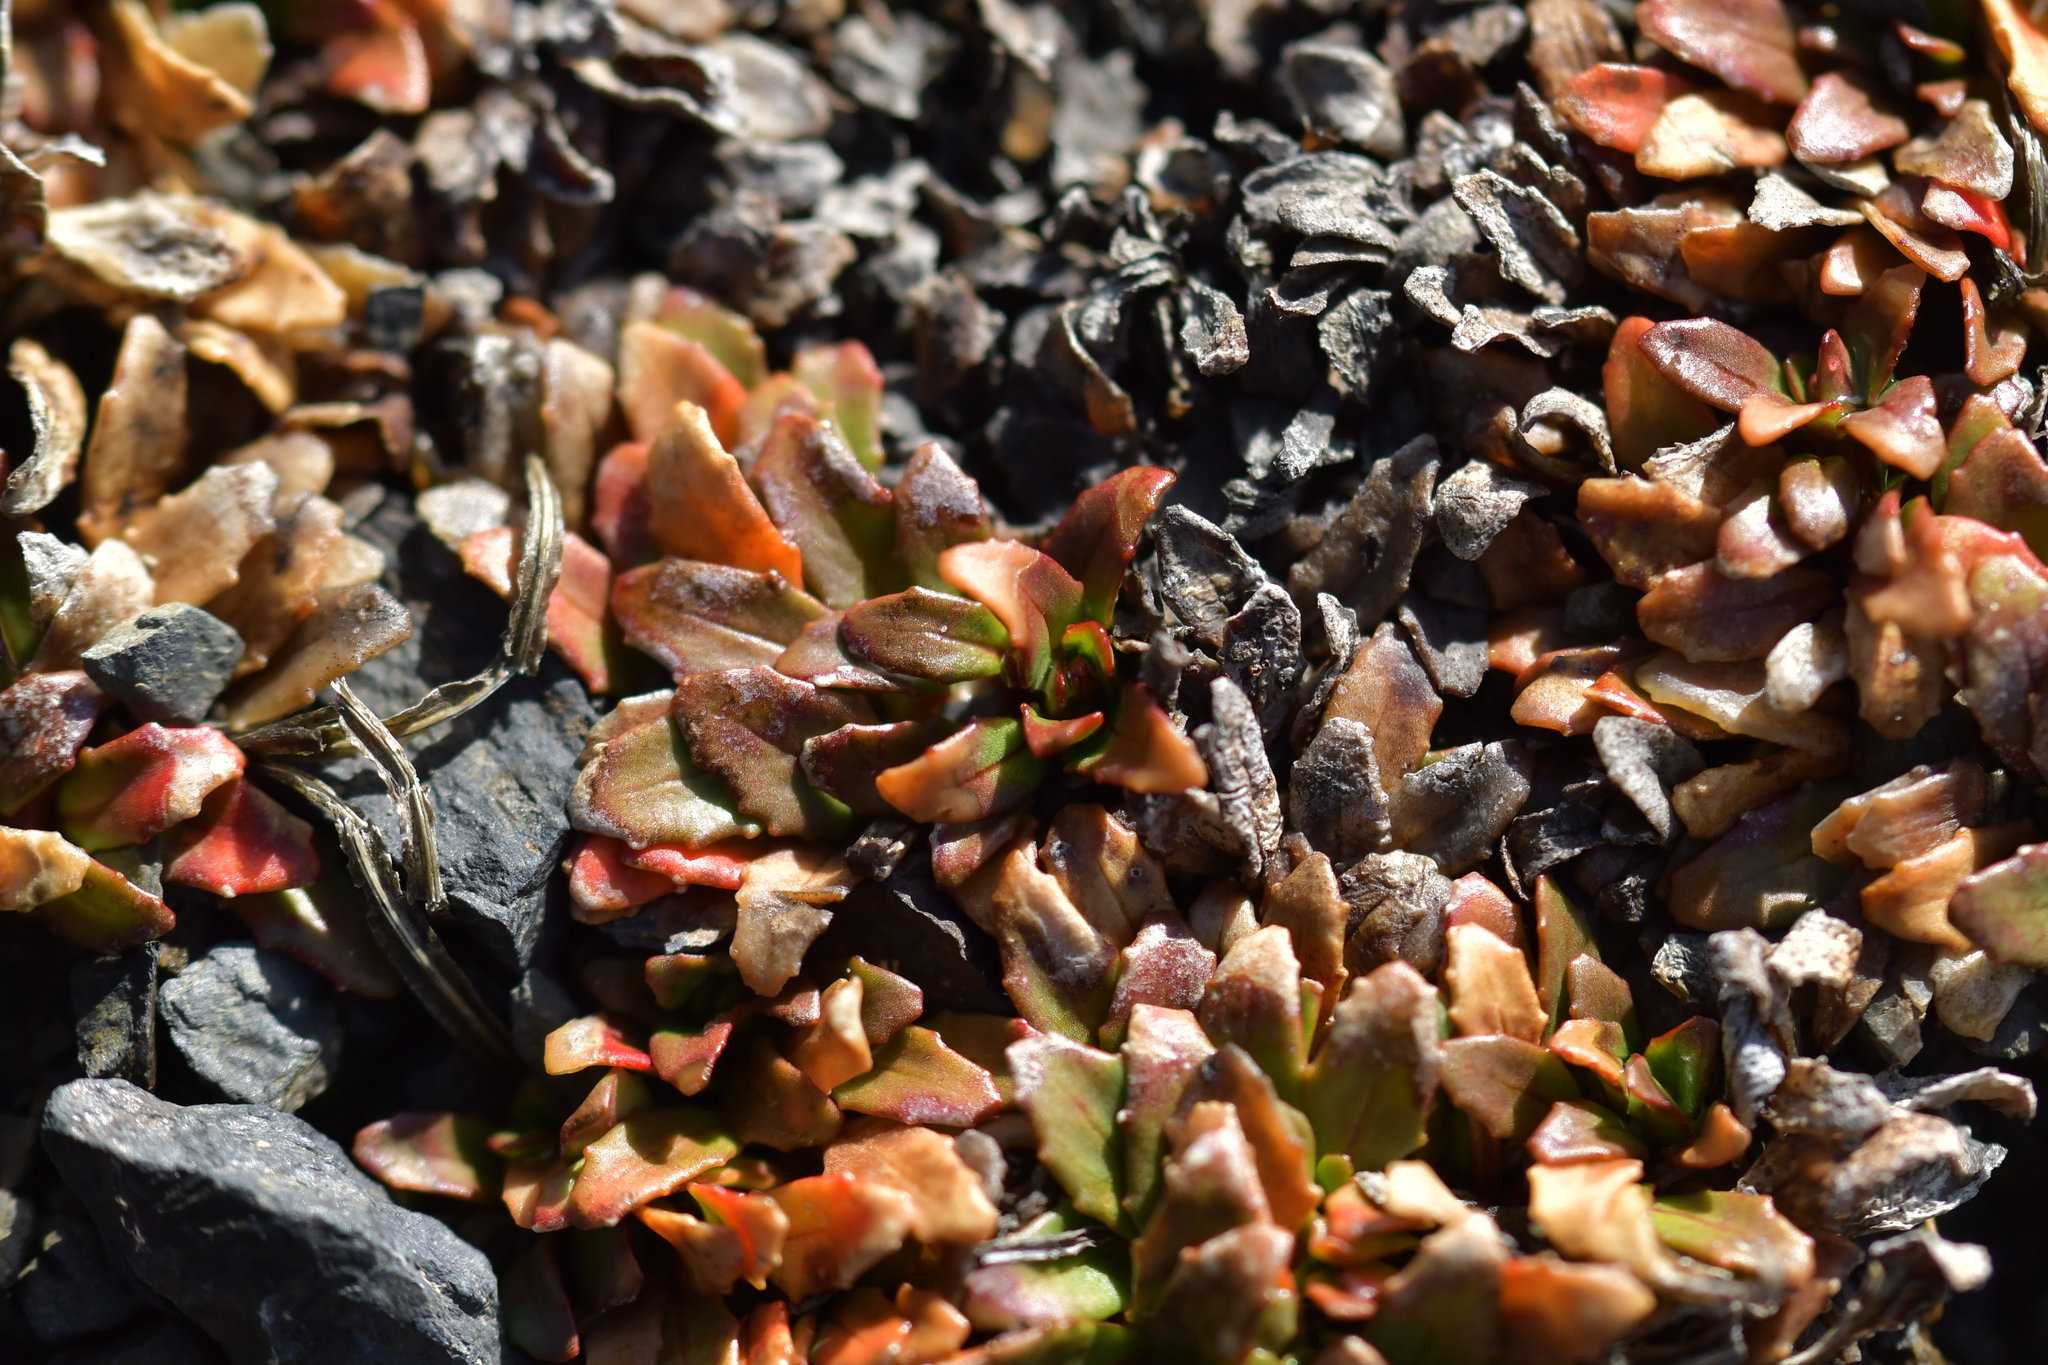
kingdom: Plantae
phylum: Tracheophyta
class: Magnoliopsida
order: Myrtales
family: Onagraceae
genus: Epilobium
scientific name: Epilobium margaretiae
